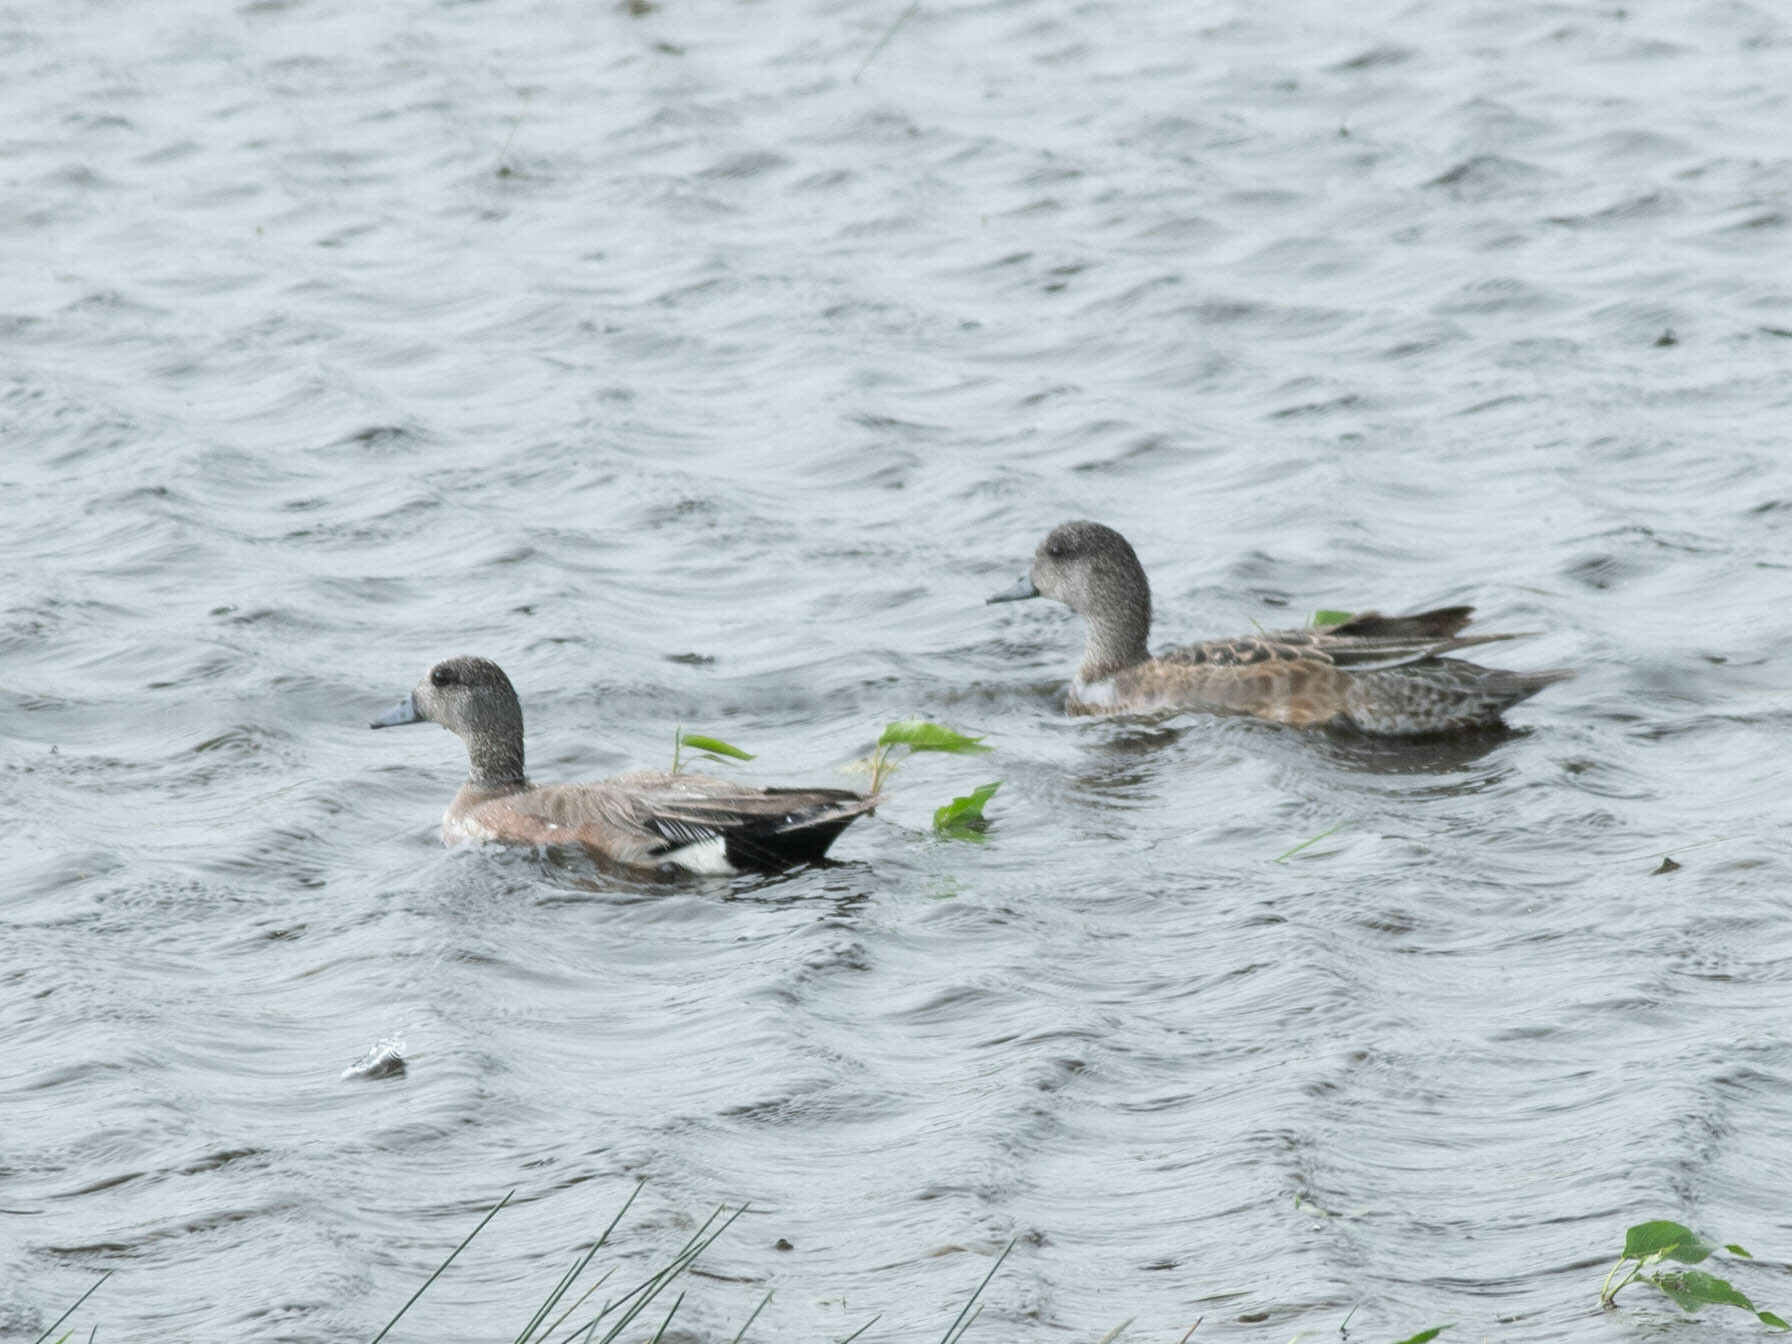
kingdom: Animalia
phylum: Chordata
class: Aves
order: Anseriformes
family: Anatidae
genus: Mareca
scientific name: Mareca americana
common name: American wigeon
